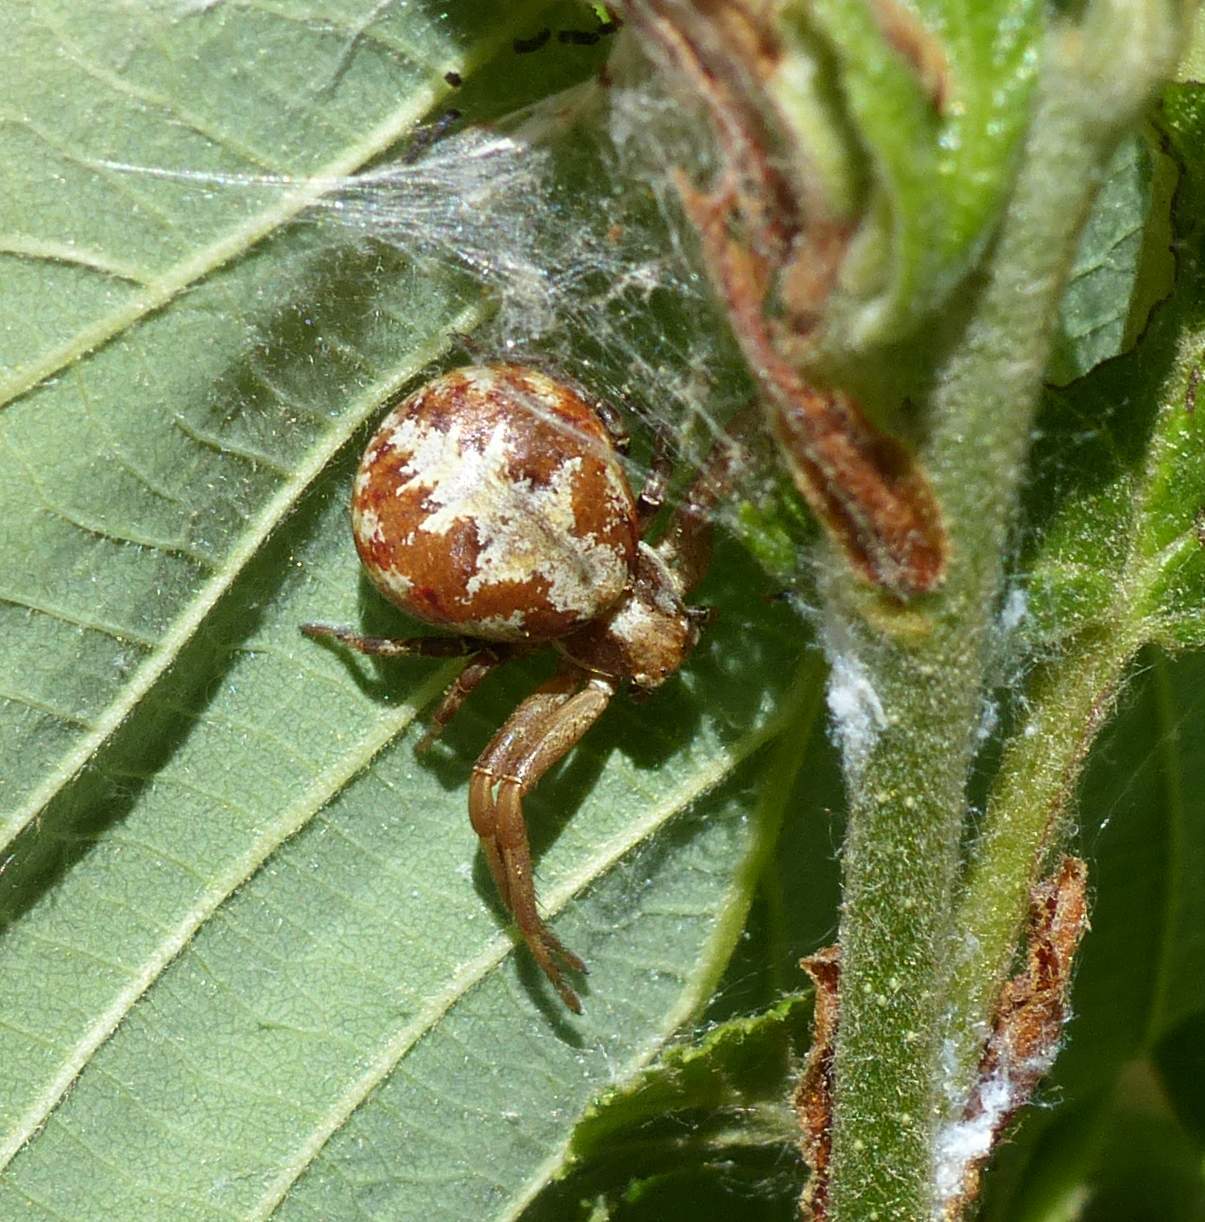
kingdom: Animalia
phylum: Arthropoda
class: Arachnida
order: Araneae
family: Thomisidae
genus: Xysticus
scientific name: Xysticus punctatus
